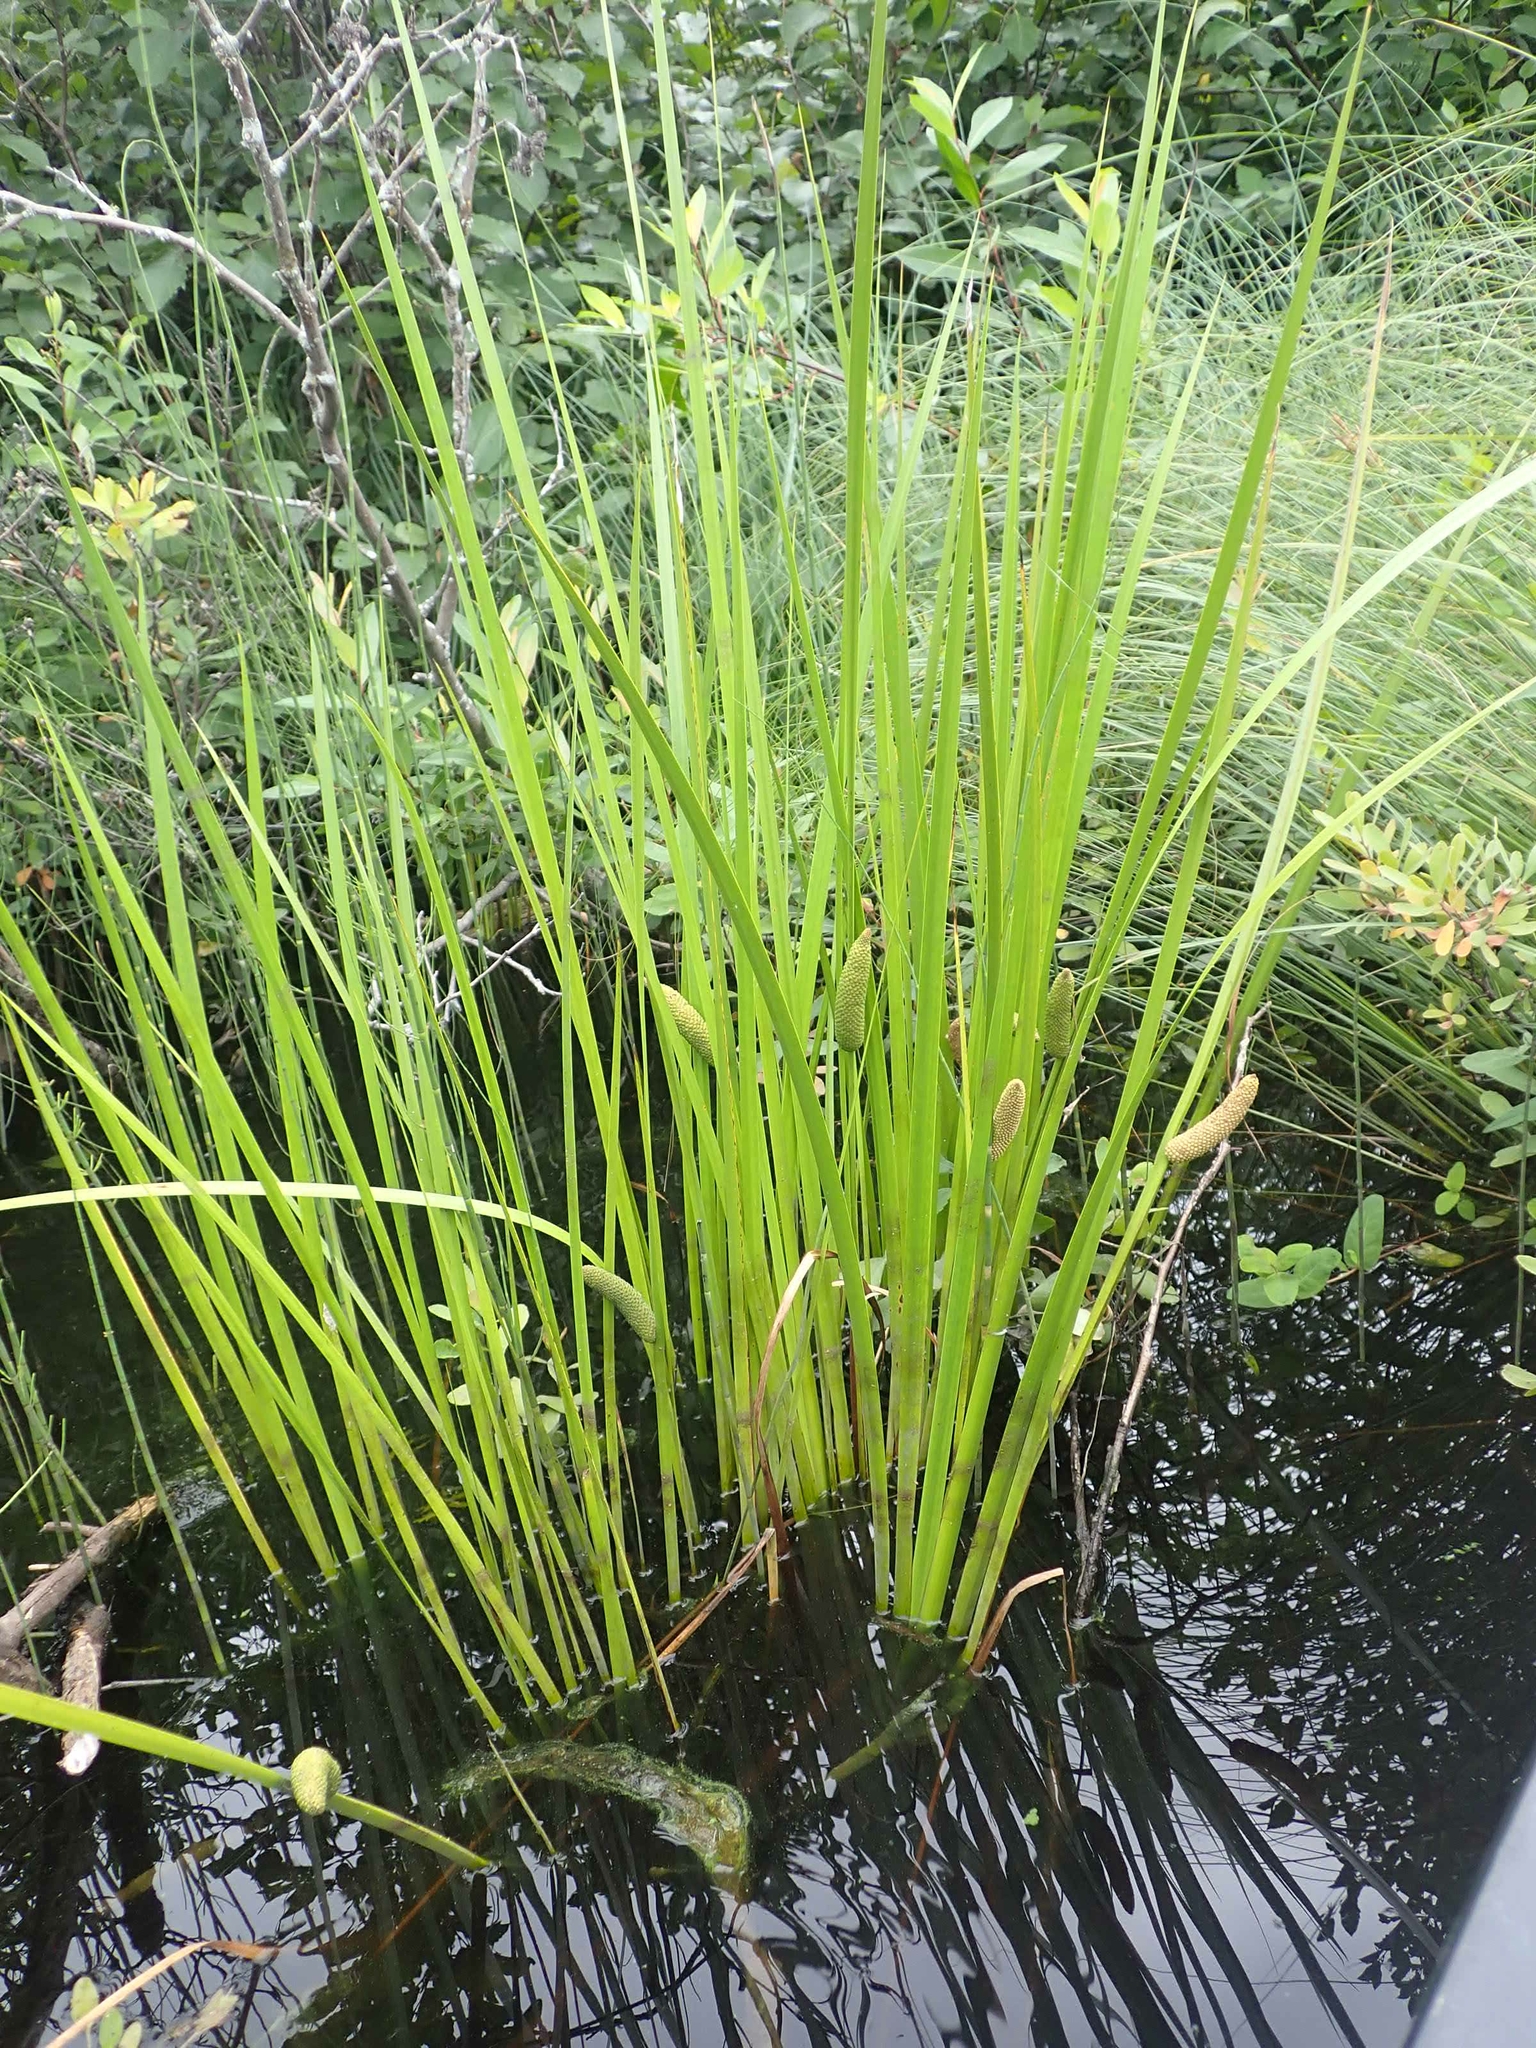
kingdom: Plantae
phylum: Tracheophyta
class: Liliopsida
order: Acorales
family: Acoraceae
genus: Acorus
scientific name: Acorus calamus
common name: Sweet-flag
